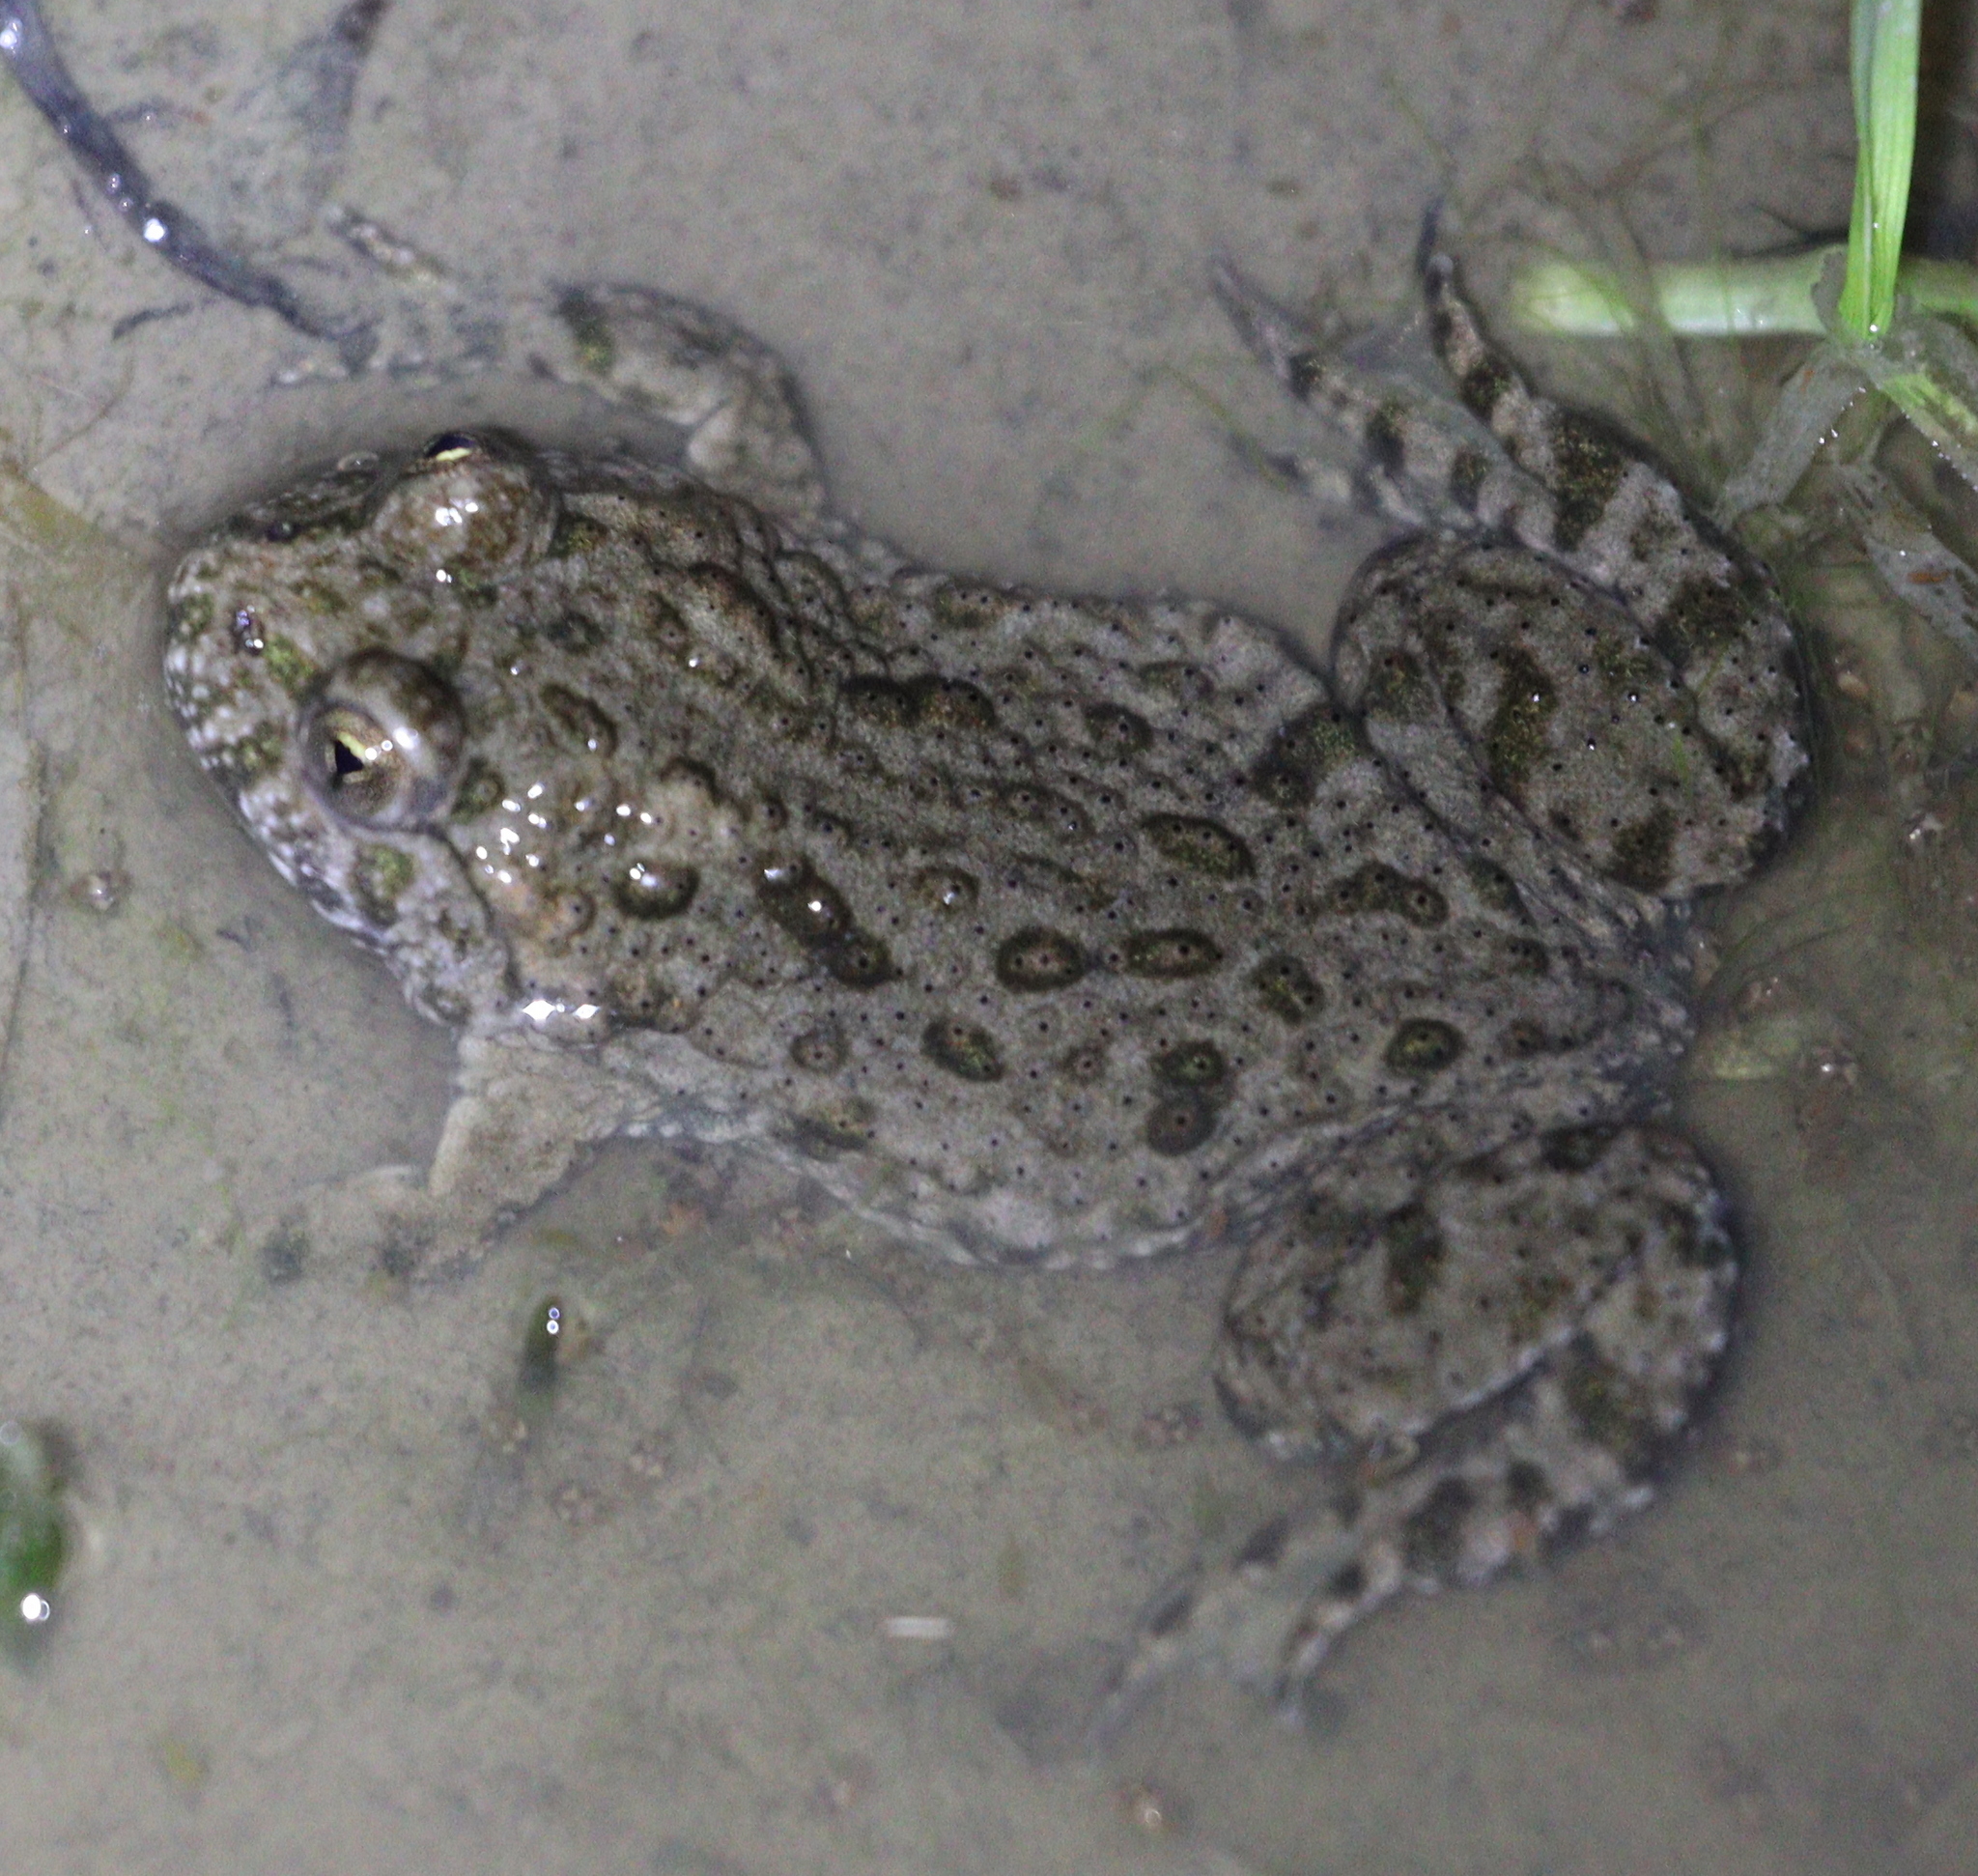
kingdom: Animalia
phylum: Chordata
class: Amphibia
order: Anura
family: Bombinatoridae
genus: Bombina
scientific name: Bombina bombina
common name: Fire-bellied toad
